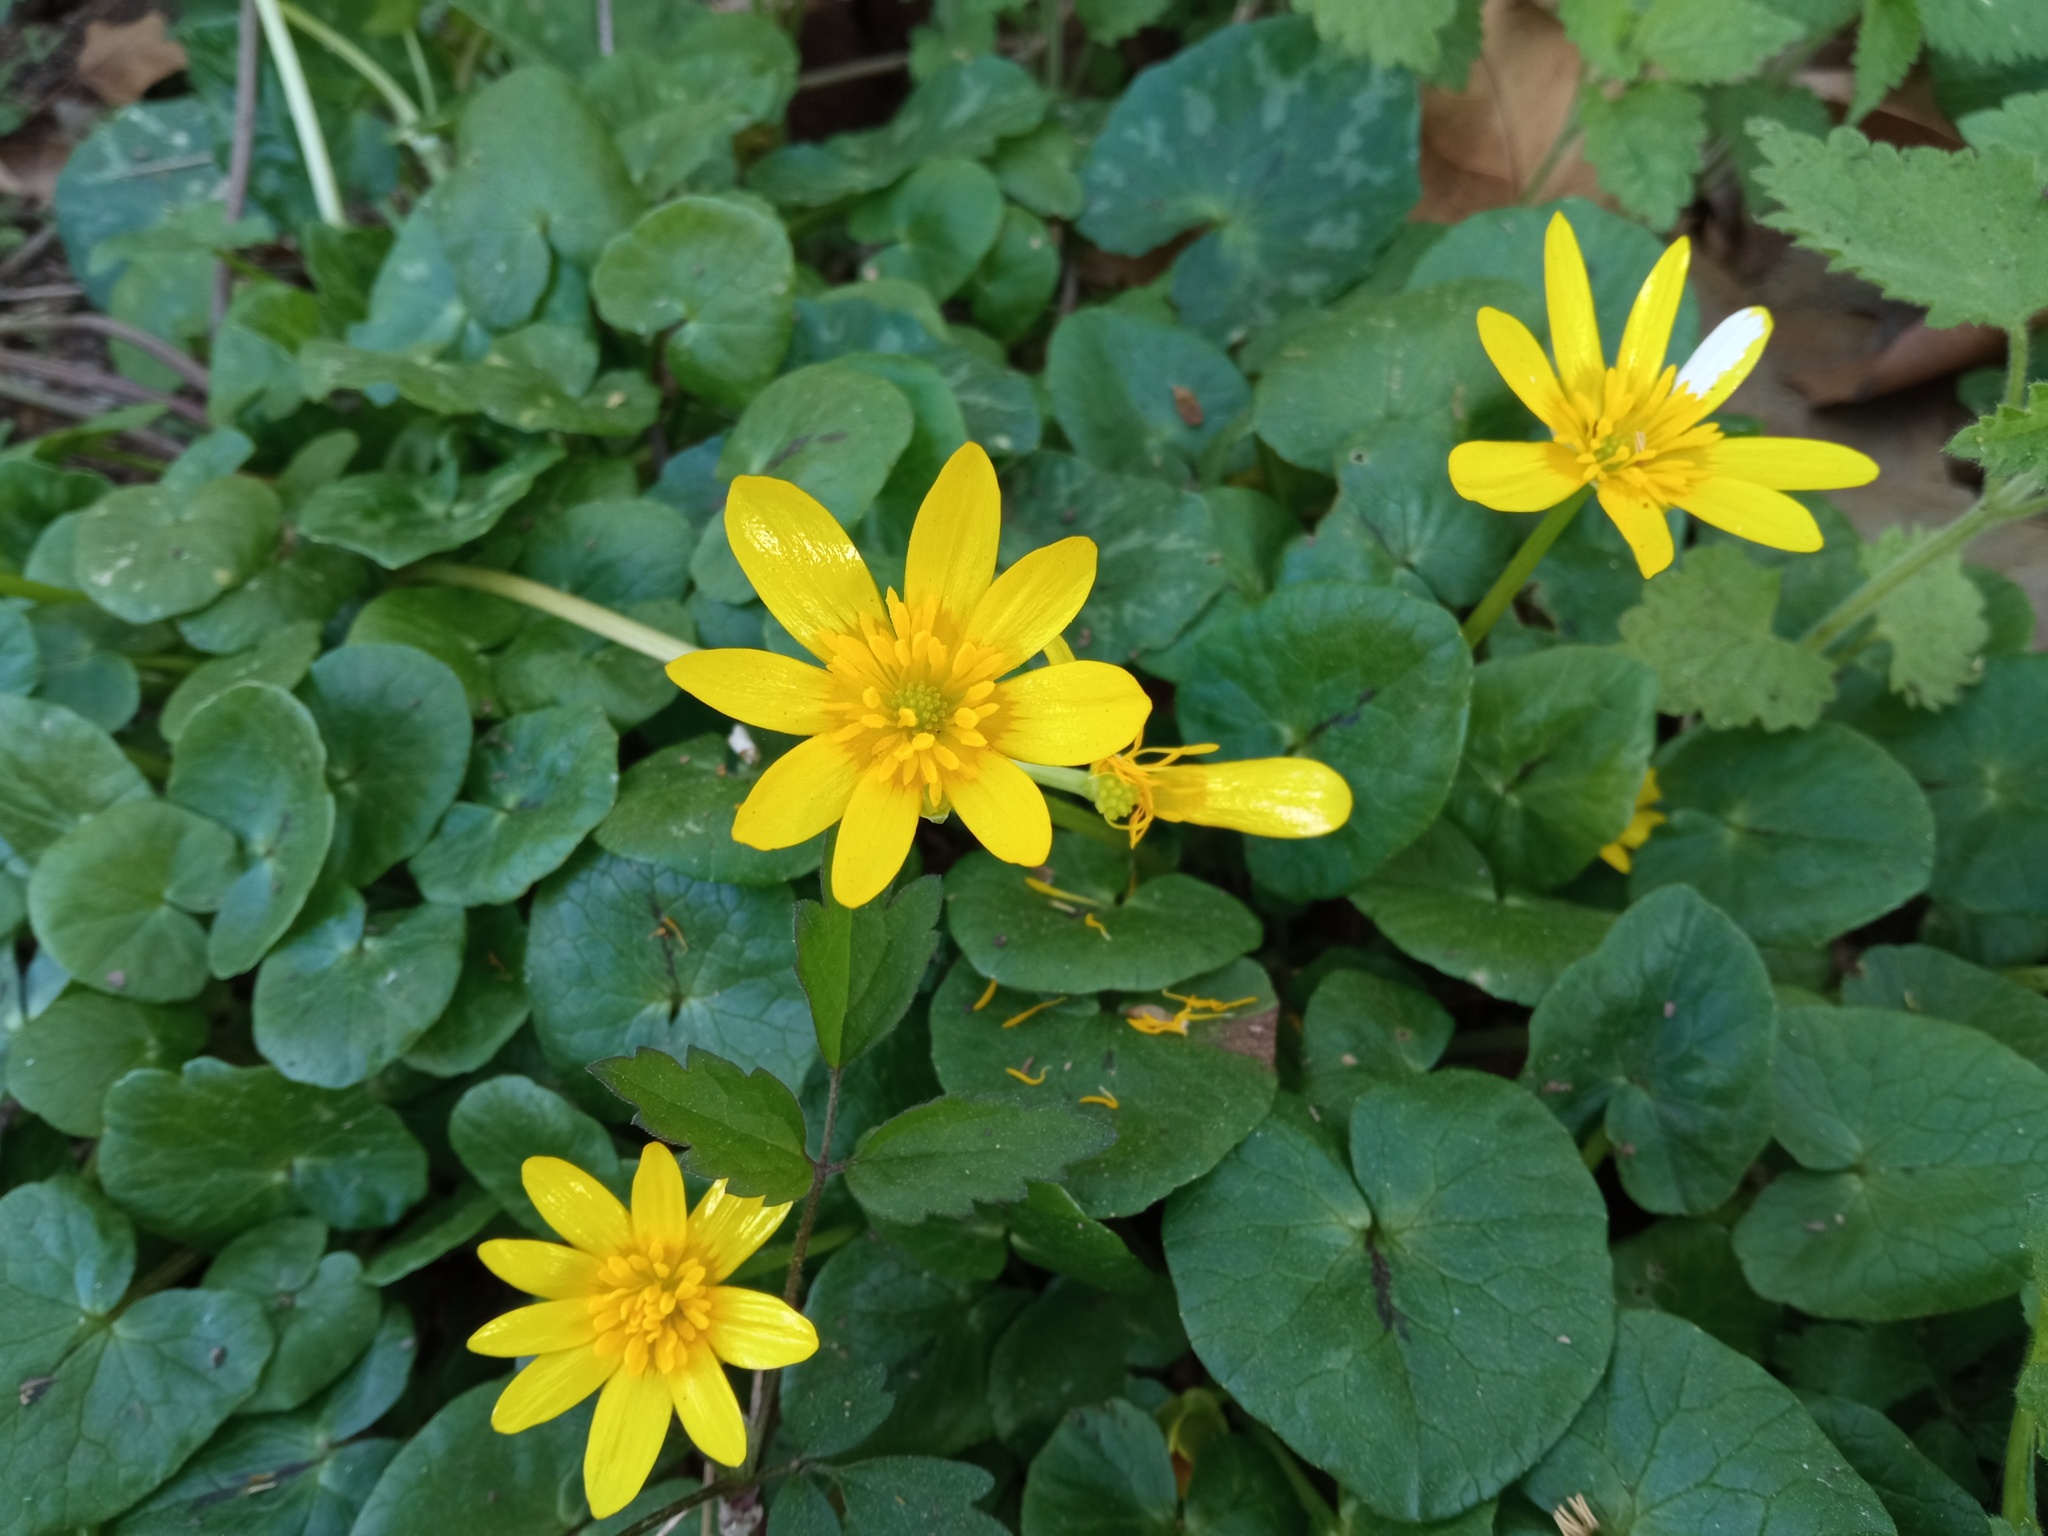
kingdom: Plantae
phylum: Tracheophyta
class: Magnoliopsida
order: Ranunculales
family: Ranunculaceae
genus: Ficaria
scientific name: Ficaria verna
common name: Lesser celandine
